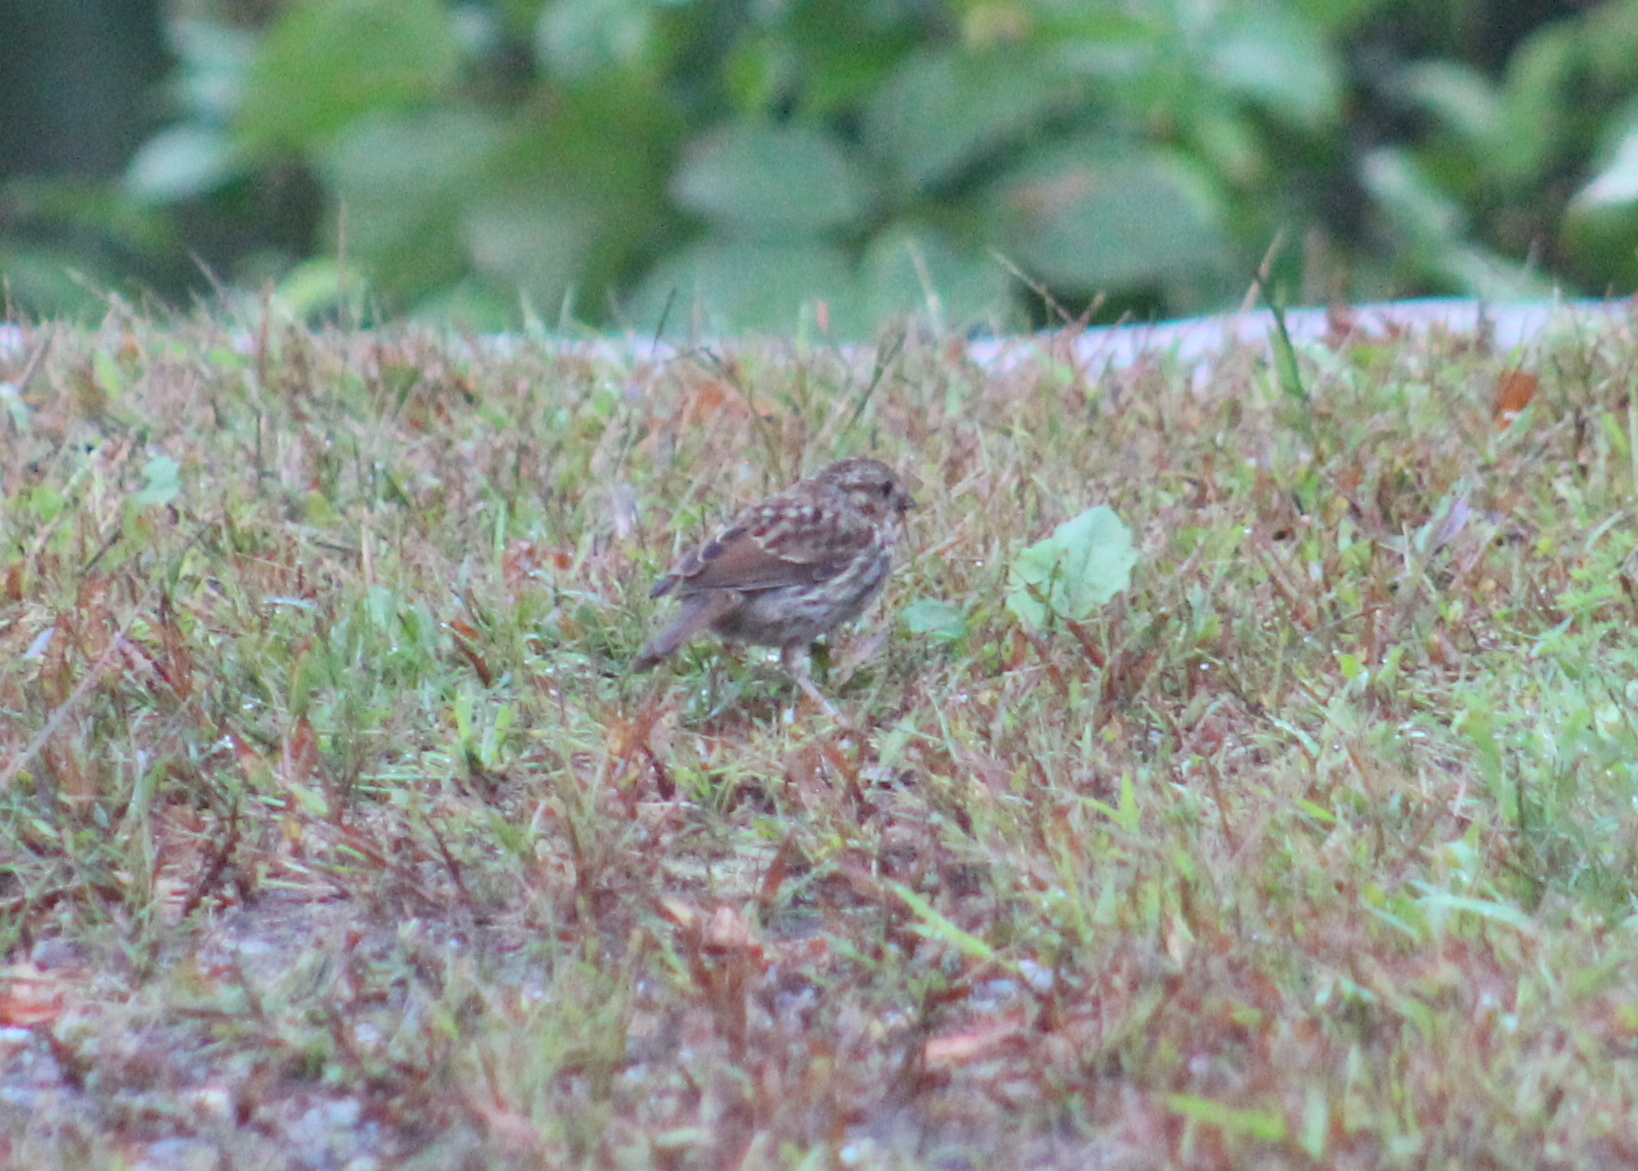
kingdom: Animalia
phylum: Chordata
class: Aves
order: Passeriformes
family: Passerellidae
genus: Melospiza
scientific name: Melospiza melodia
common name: Song sparrow
